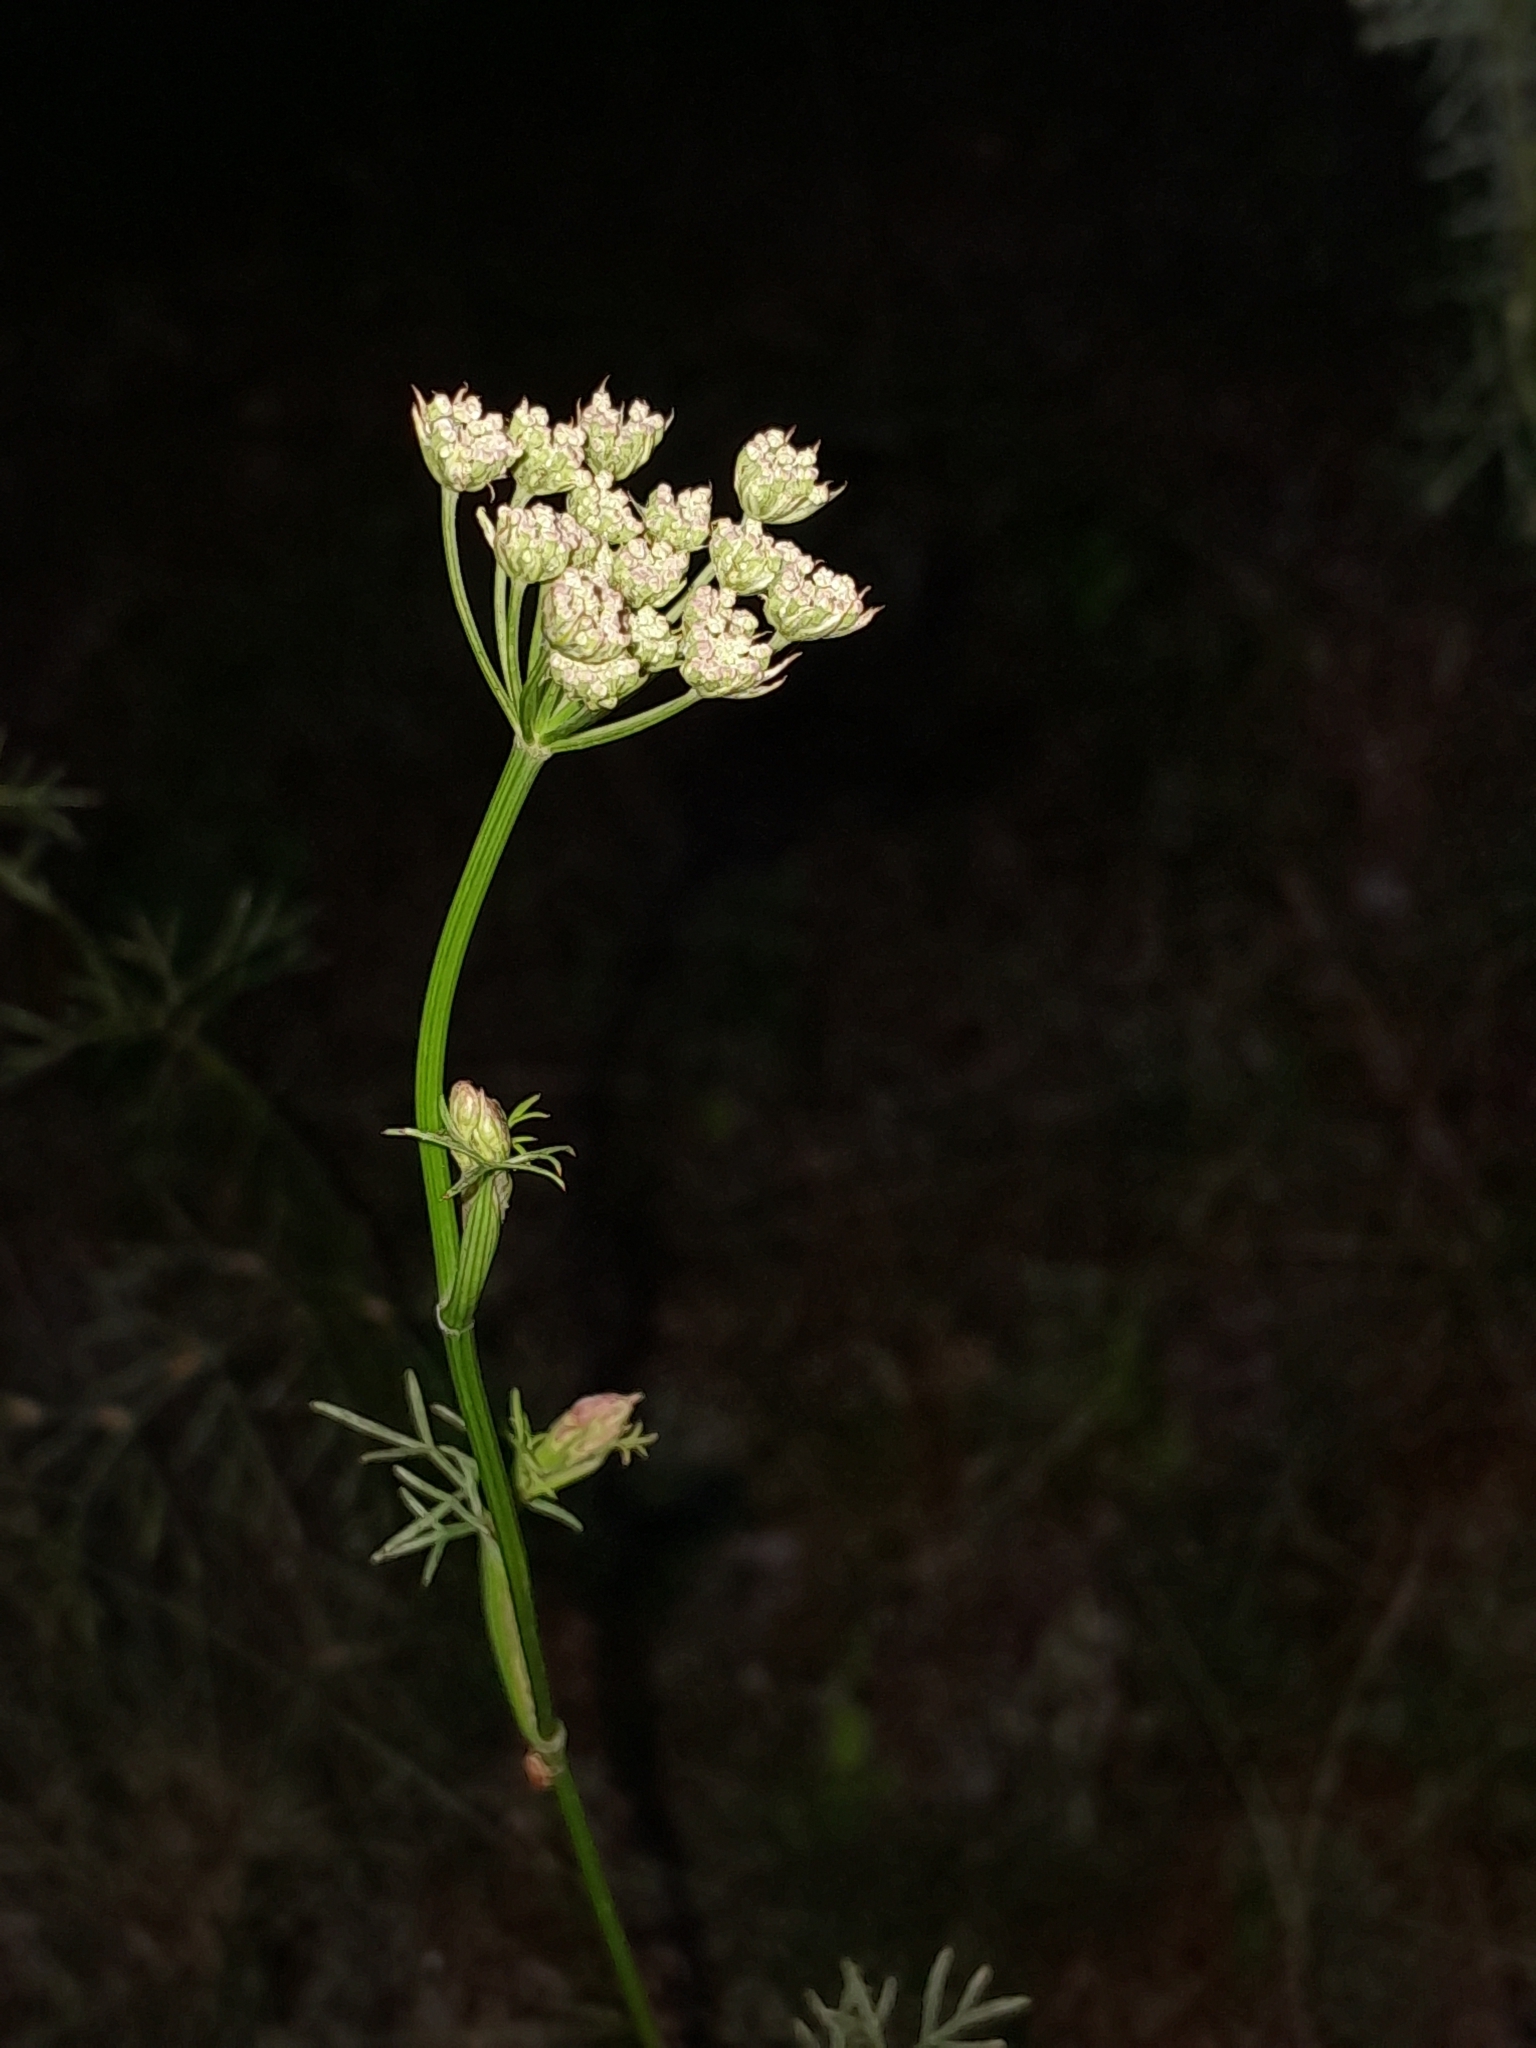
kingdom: Plantae
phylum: Tracheophyta
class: Magnoliopsida
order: Apiales
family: Apiaceae
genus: Seseli
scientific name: Seseli annuum
